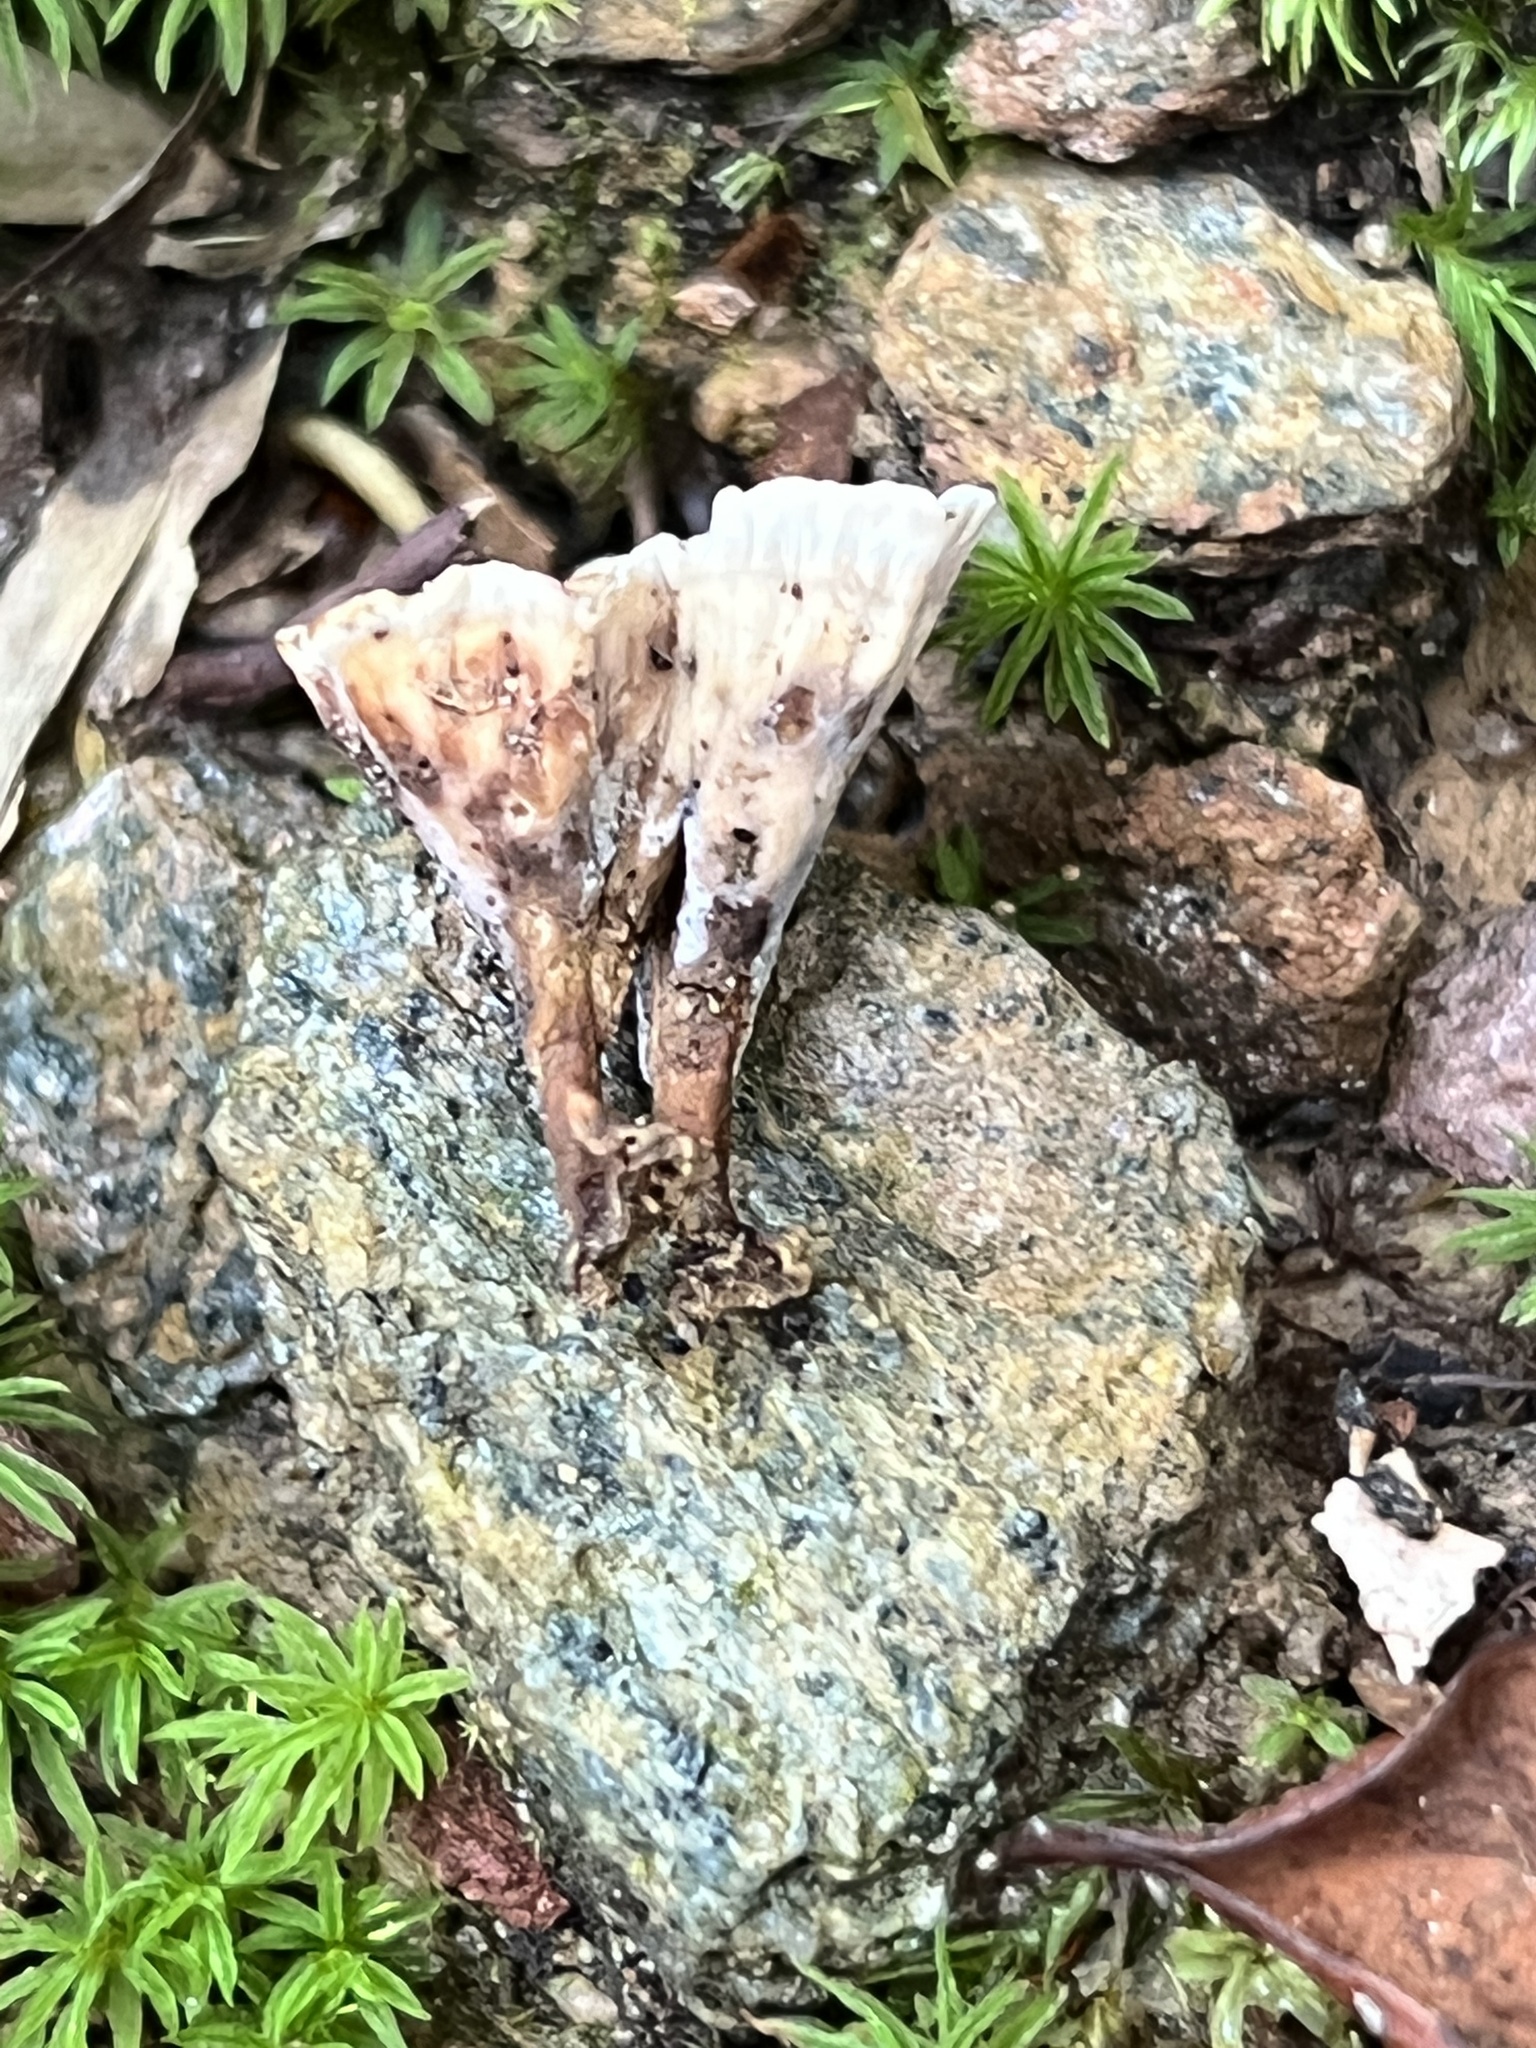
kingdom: Fungi
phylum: Basidiomycota
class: Agaricomycetes
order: Polyporales
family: Podoscyphaceae
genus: Podoscypha
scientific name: Podoscypha petalodes
